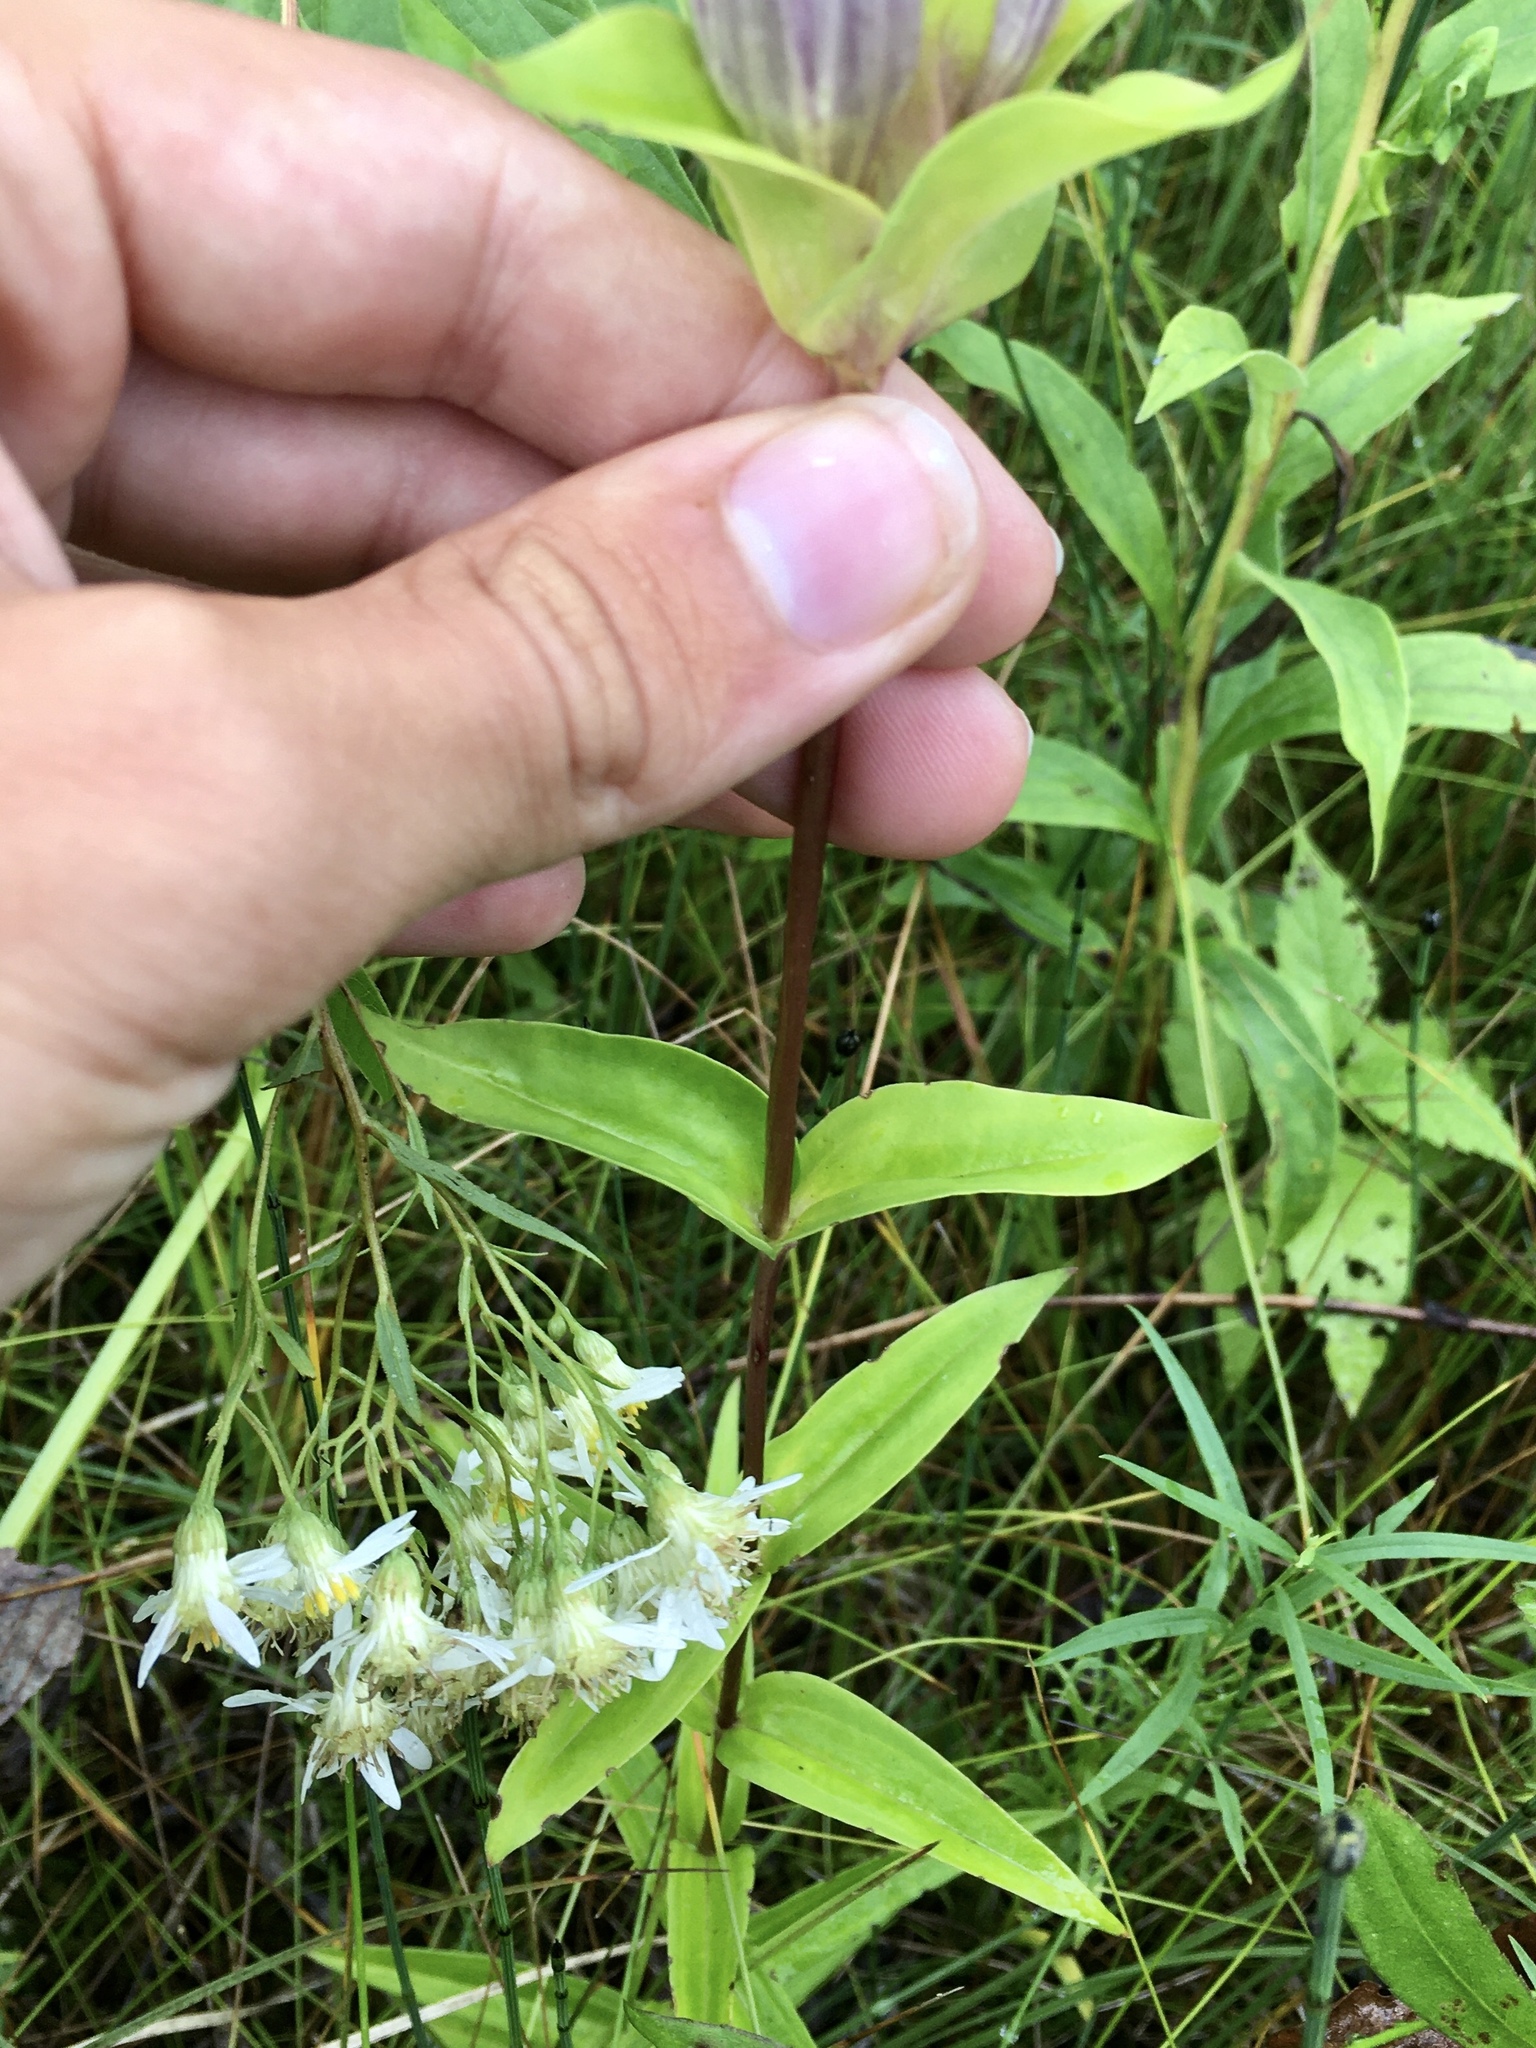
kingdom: Plantae
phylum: Tracheophyta
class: Magnoliopsida
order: Gentianales
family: Gentianaceae
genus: Gentiana
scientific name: Gentiana rubricaulis
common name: Purple-stemmed gentian
